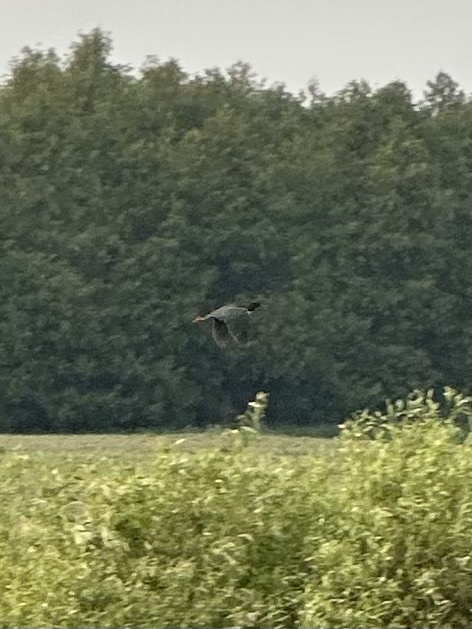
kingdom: Animalia
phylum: Chordata
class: Aves
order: Pelecaniformes
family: Ardeidae
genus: Butorides
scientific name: Butorides virescens
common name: Green heron
